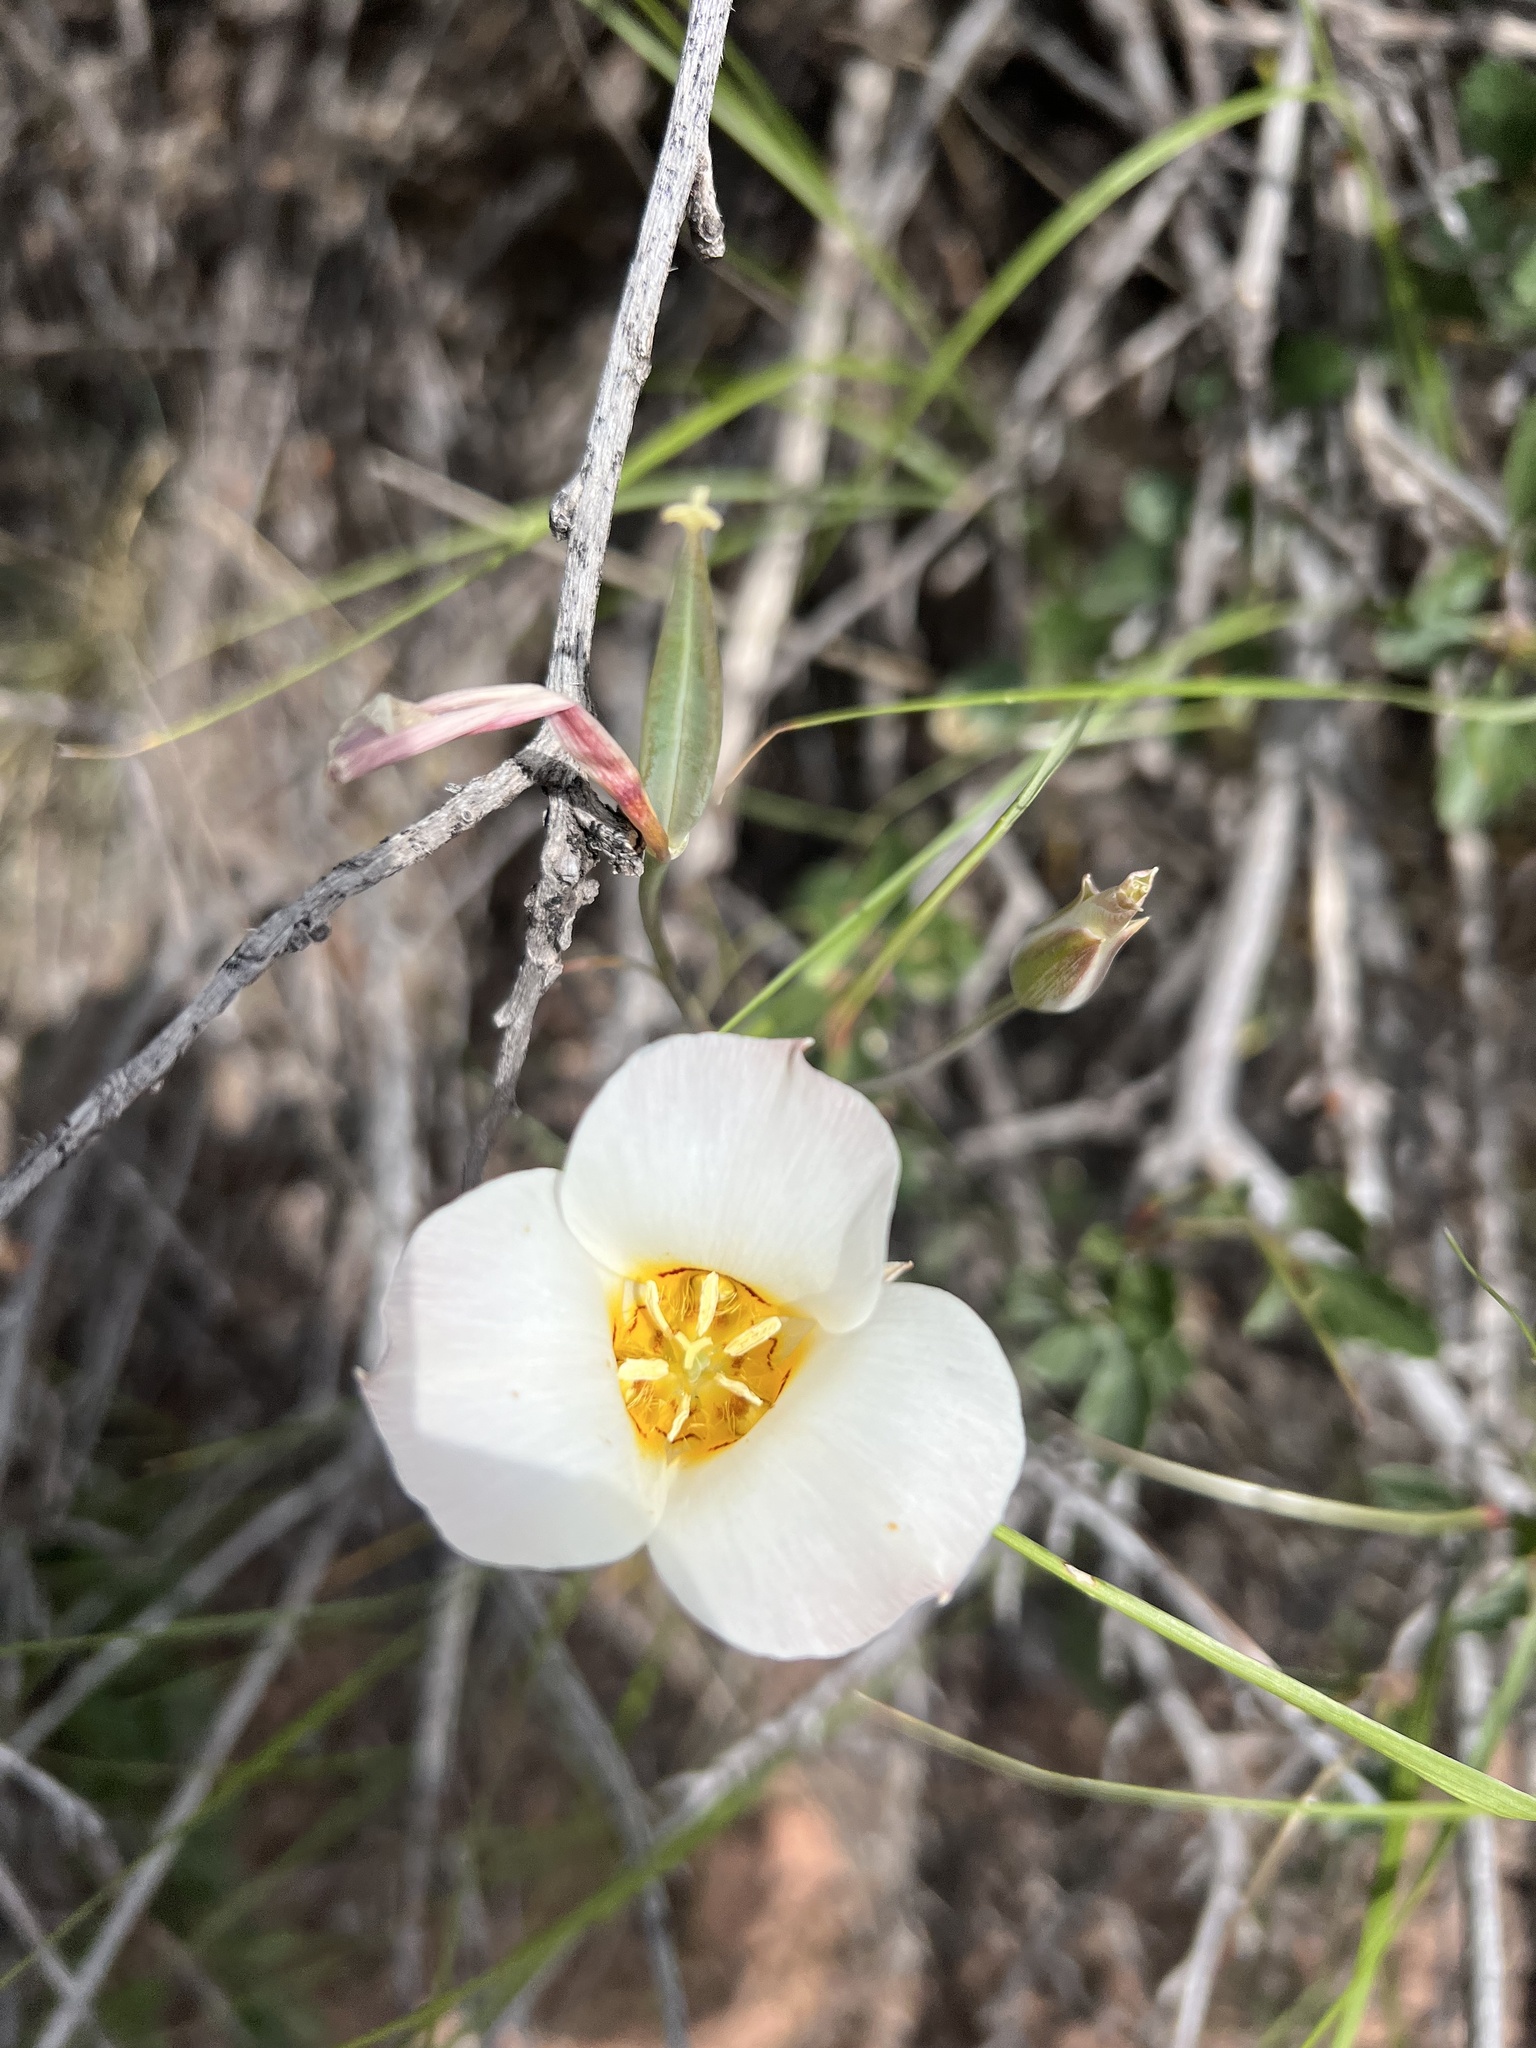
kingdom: Plantae
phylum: Tracheophyta
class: Liliopsida
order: Liliales
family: Liliaceae
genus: Calochortus
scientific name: Calochortus nuttallii
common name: Sego-lily
